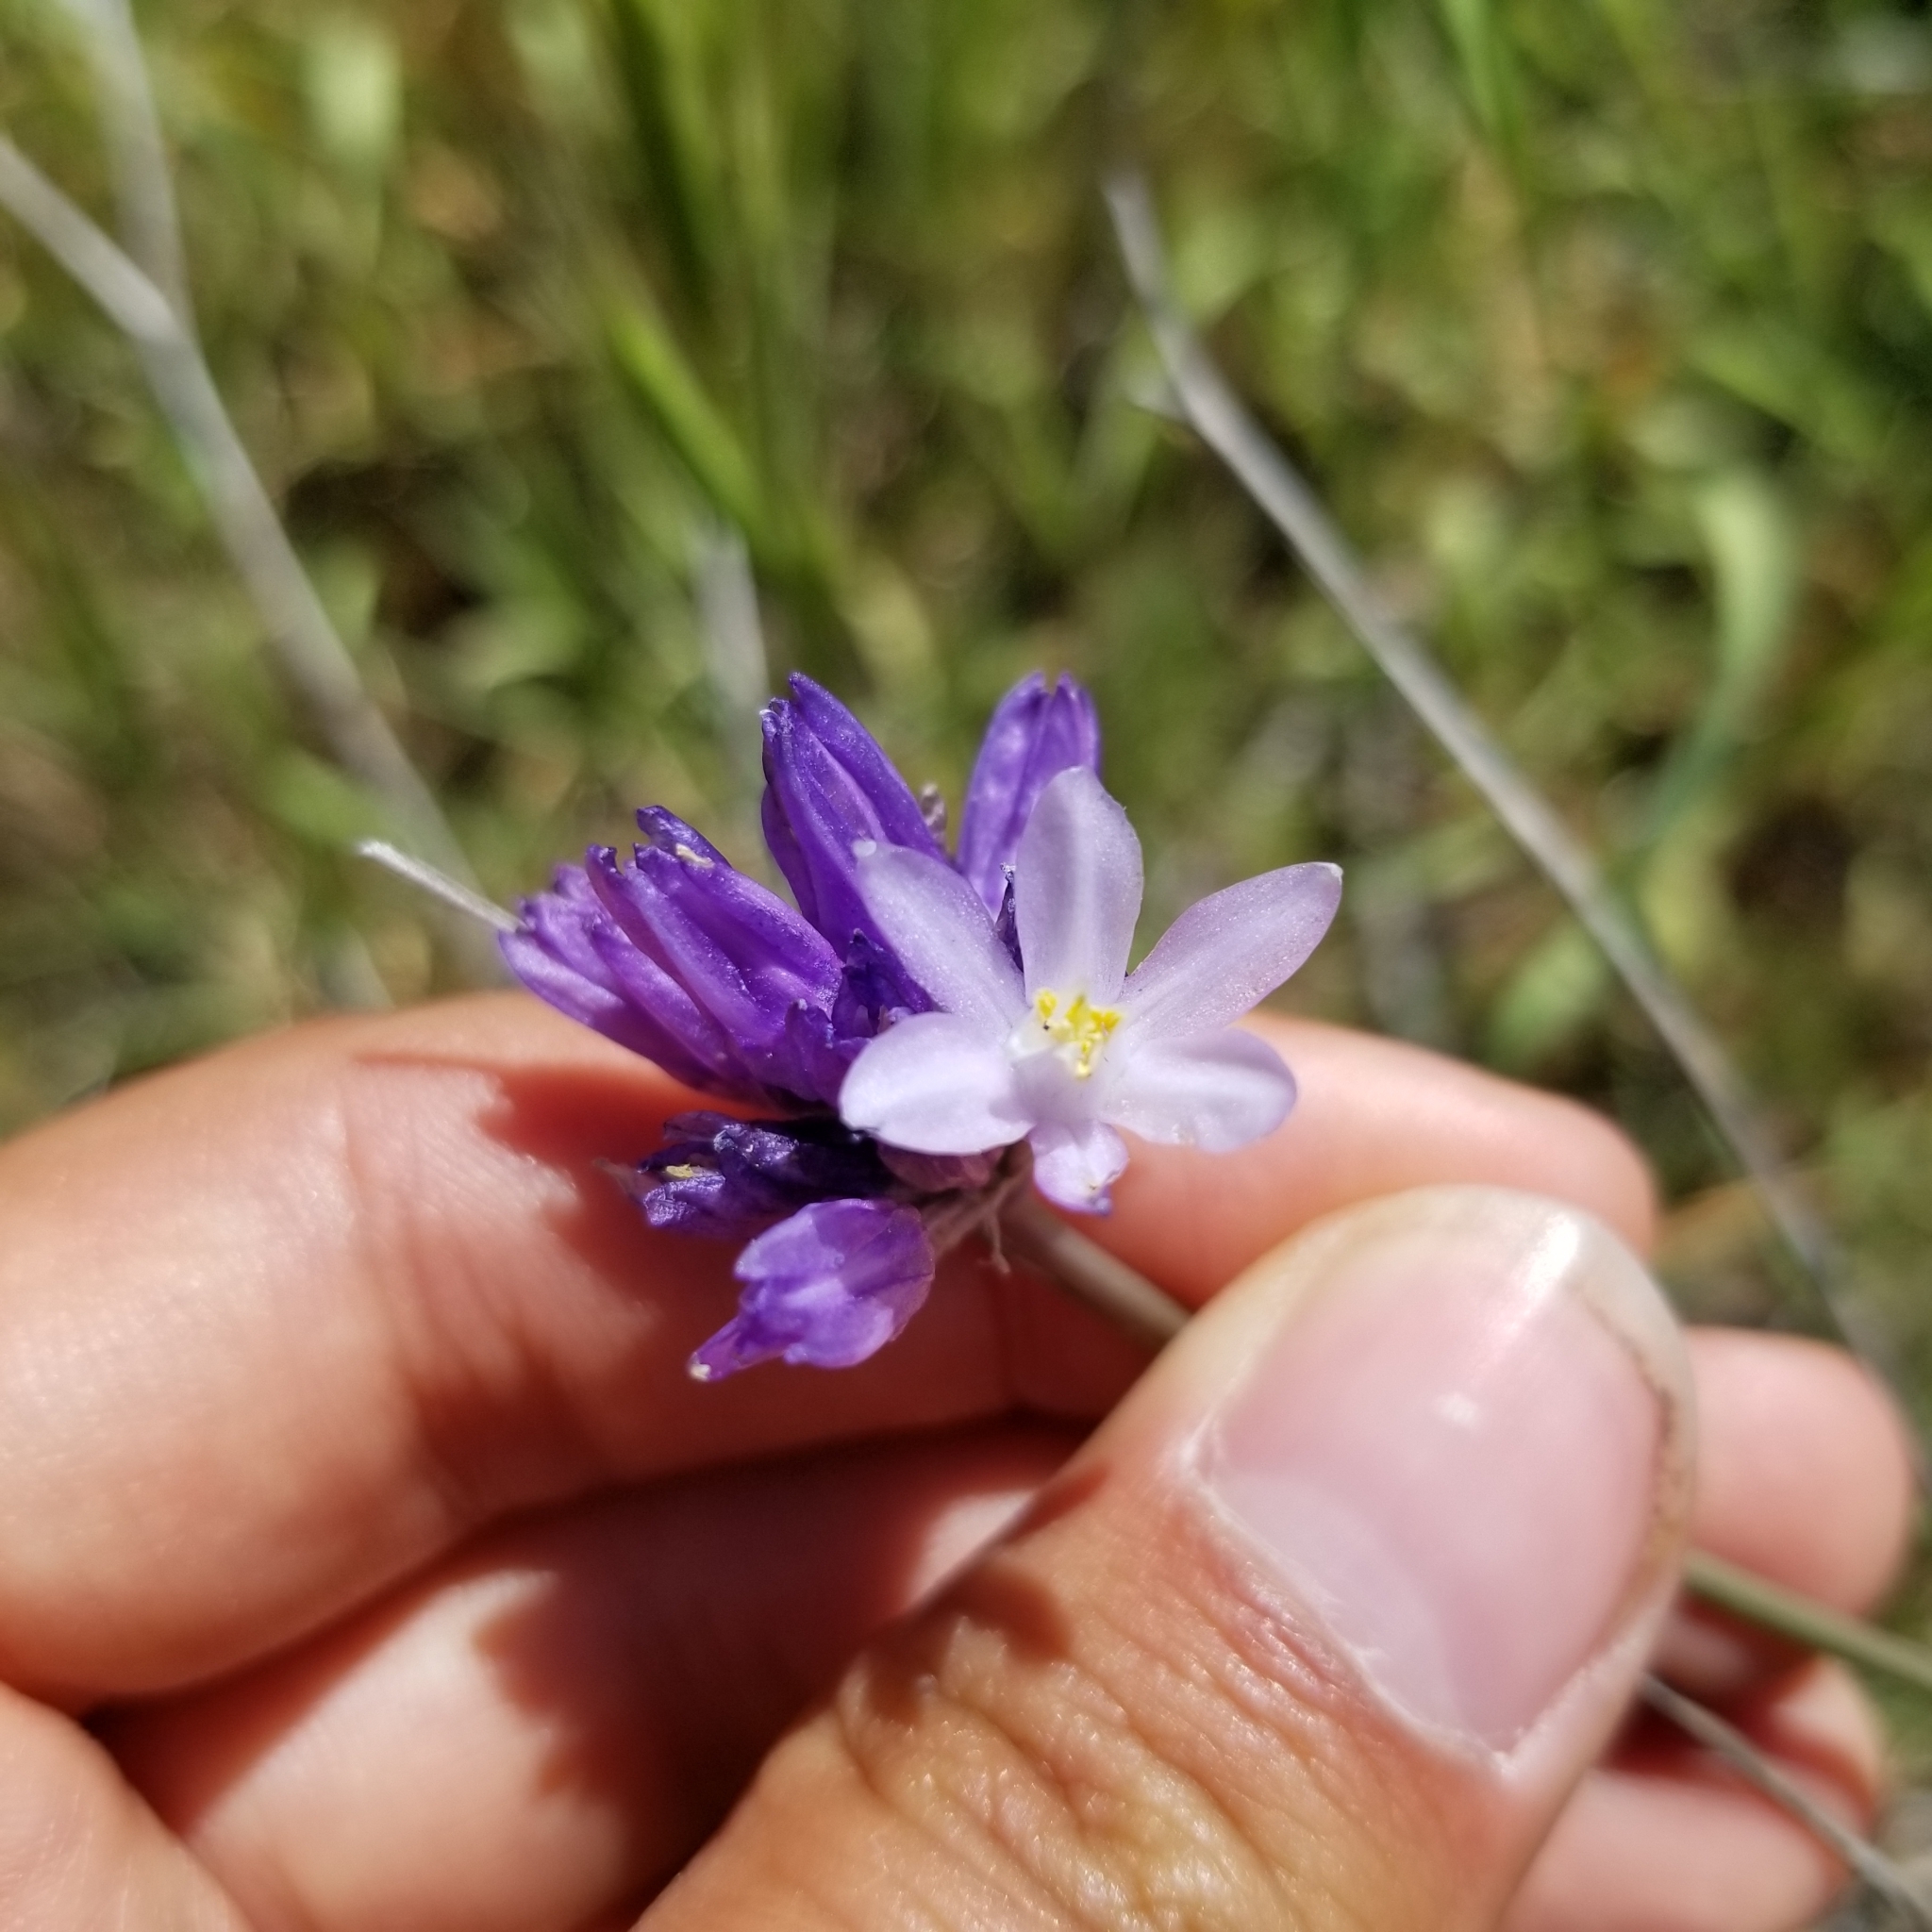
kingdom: Plantae
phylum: Tracheophyta
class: Liliopsida
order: Asparagales
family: Asparagaceae
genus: Dipterostemon
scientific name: Dipterostemon capitatus
